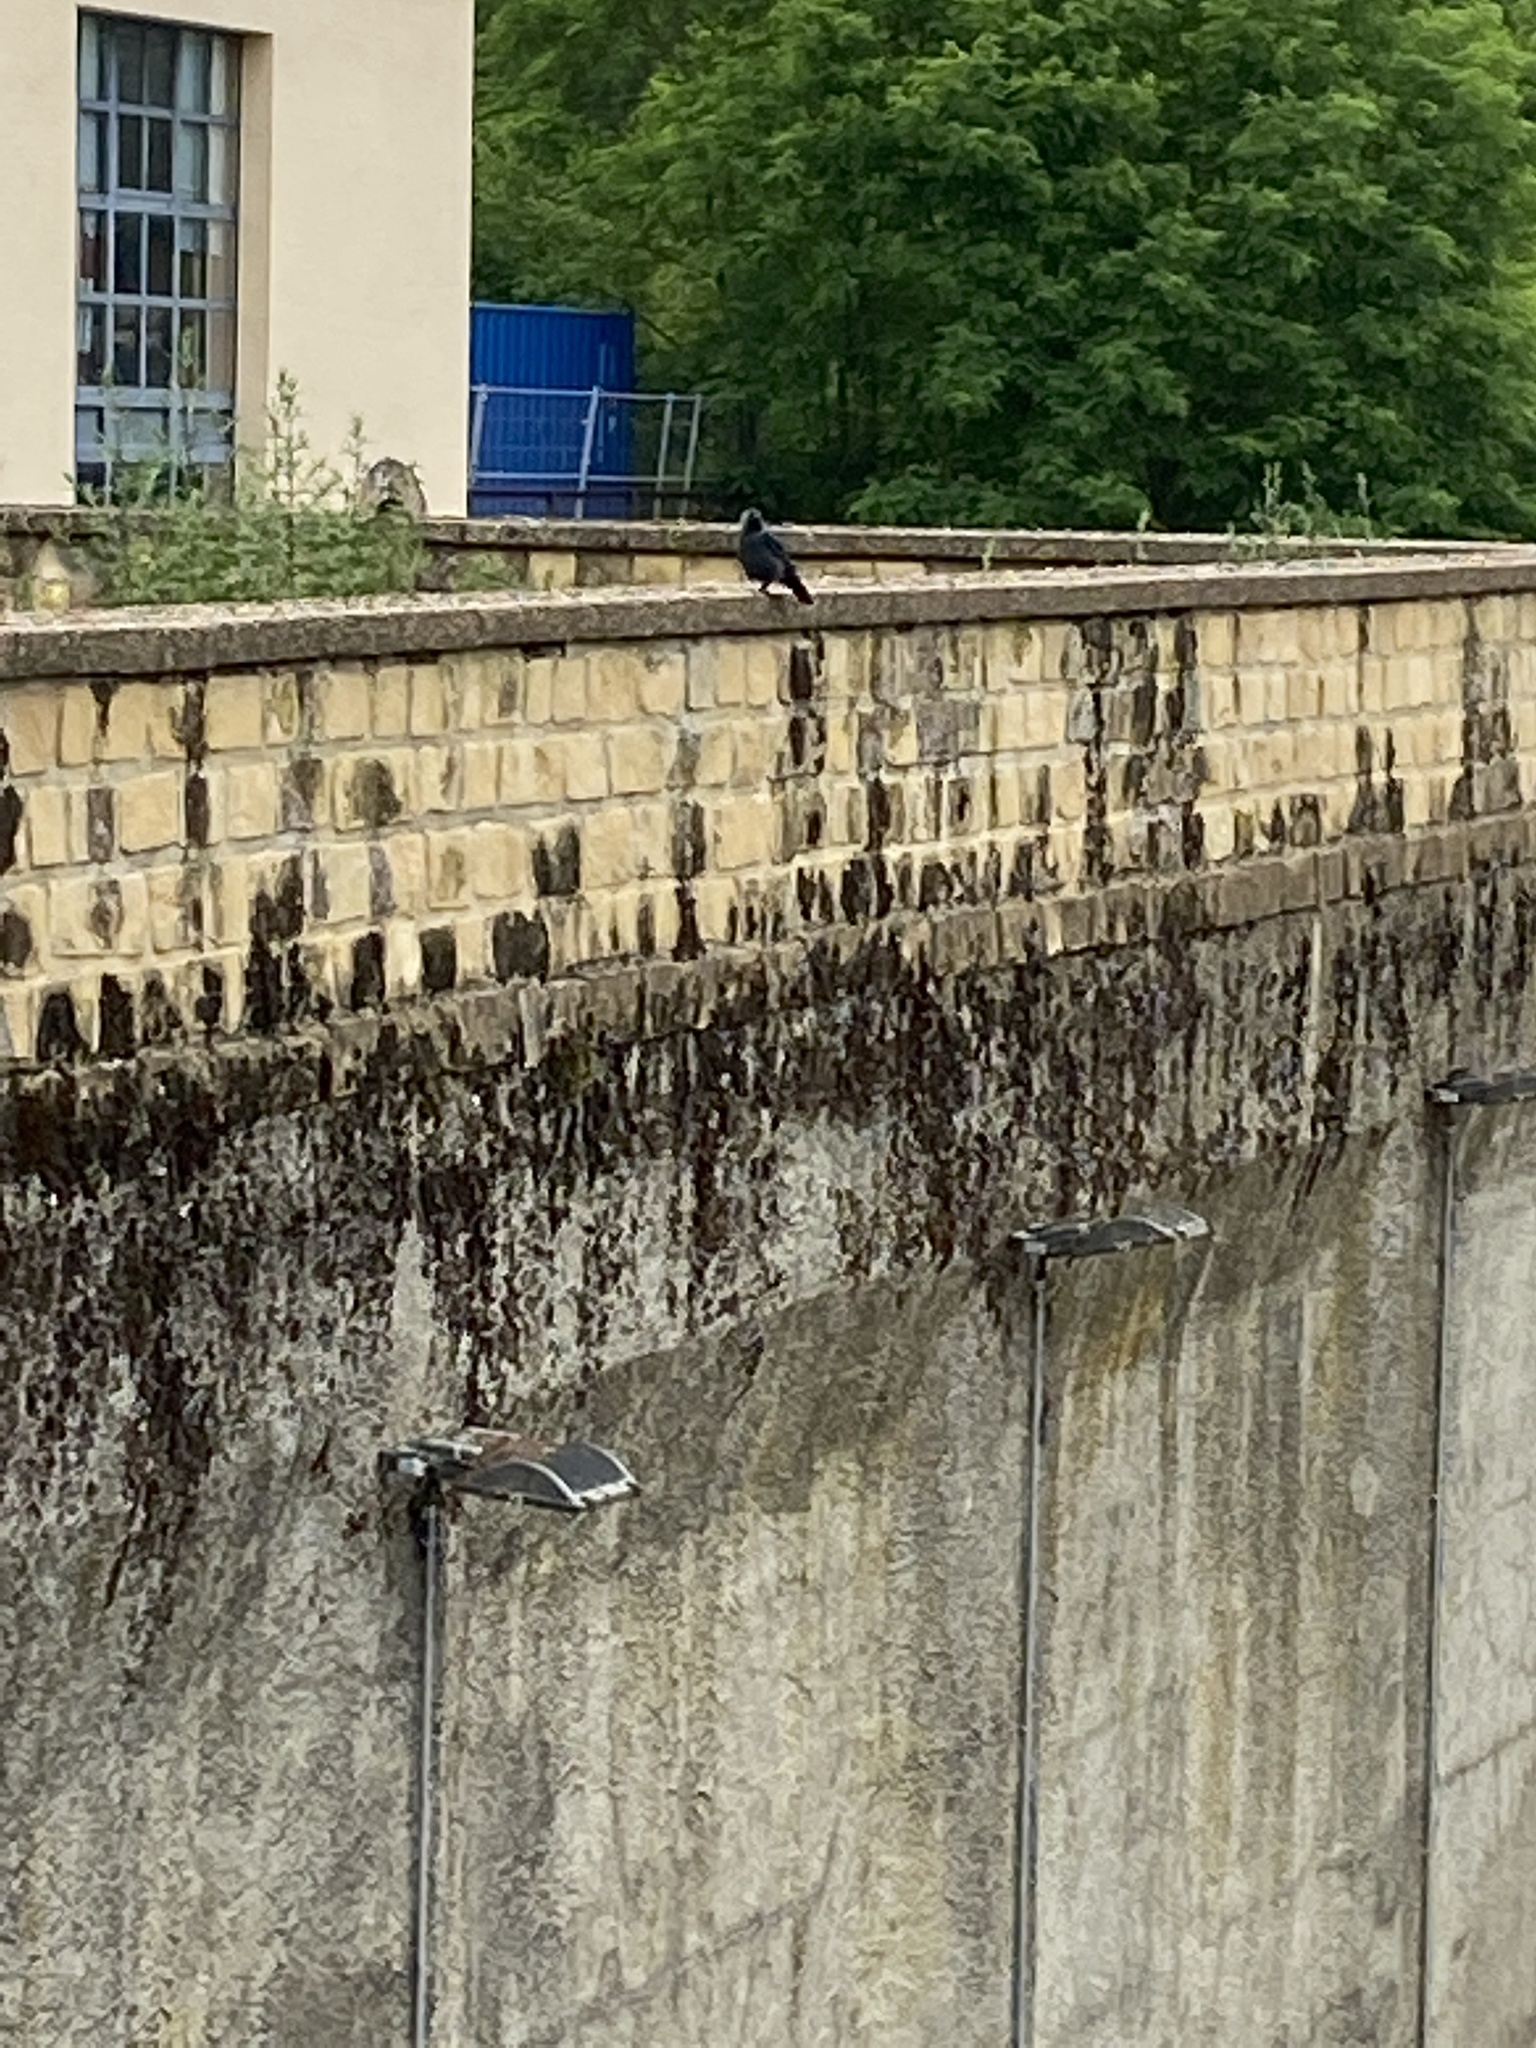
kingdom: Animalia
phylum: Chordata
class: Aves
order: Passeriformes
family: Corvidae
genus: Coloeus
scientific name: Coloeus monedula
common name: Western jackdaw
